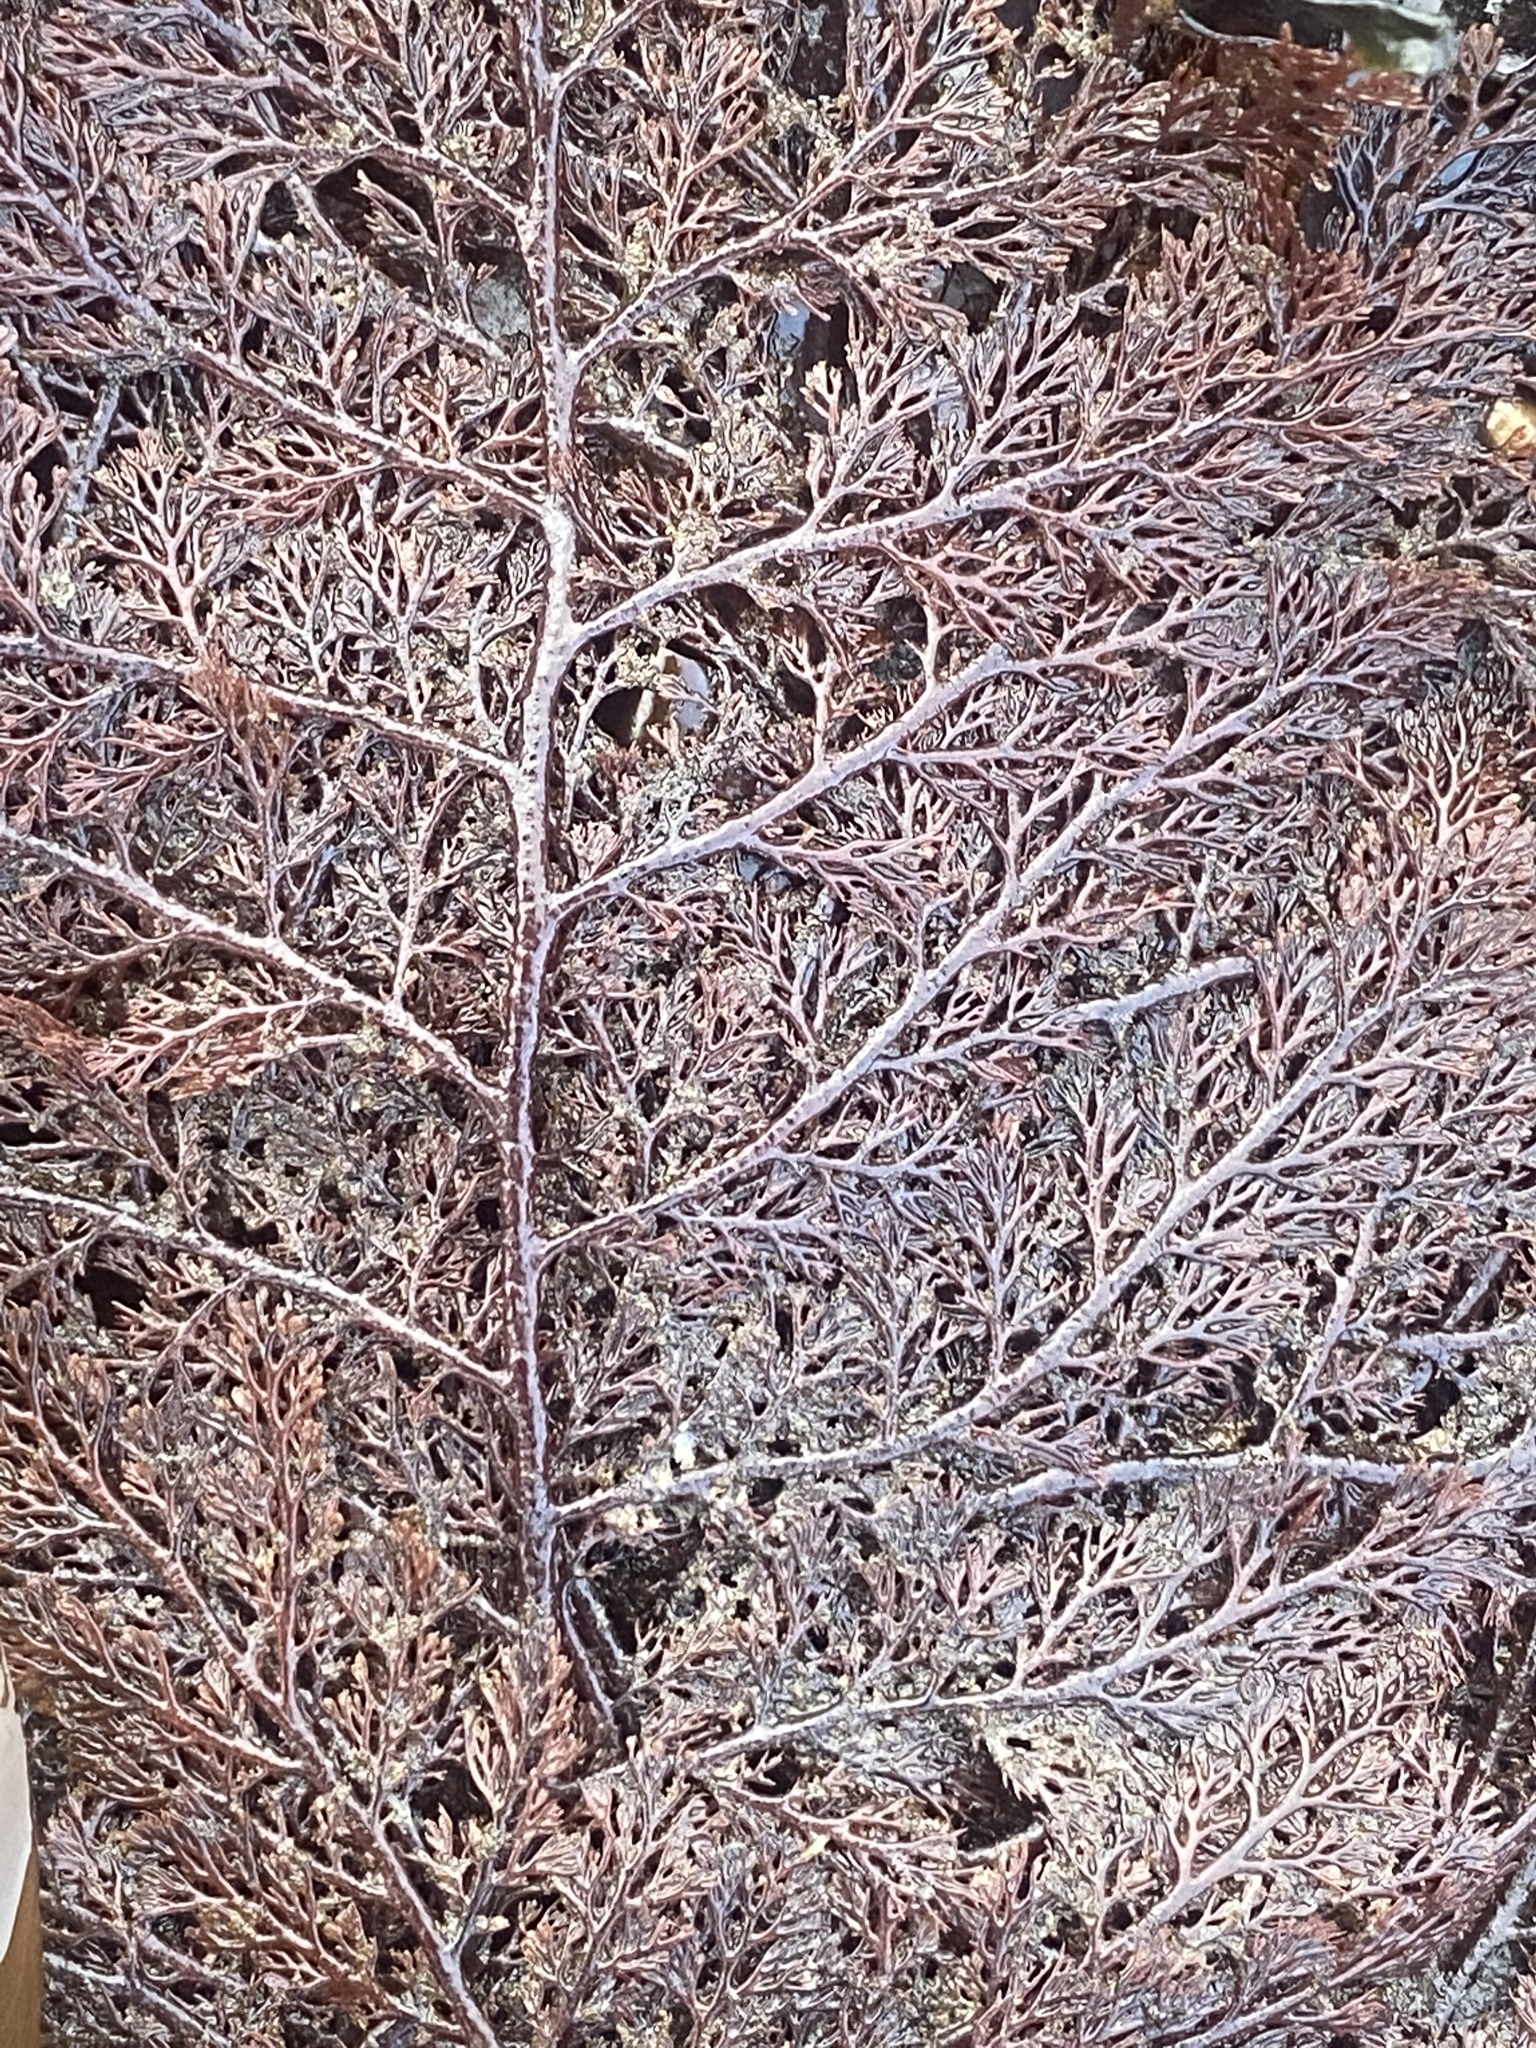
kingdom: Plantae
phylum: Rhodophyta
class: Florideophyceae
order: Ceramiales
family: Ceramiaceae
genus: Microcladia
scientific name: Microcladia coulteri
